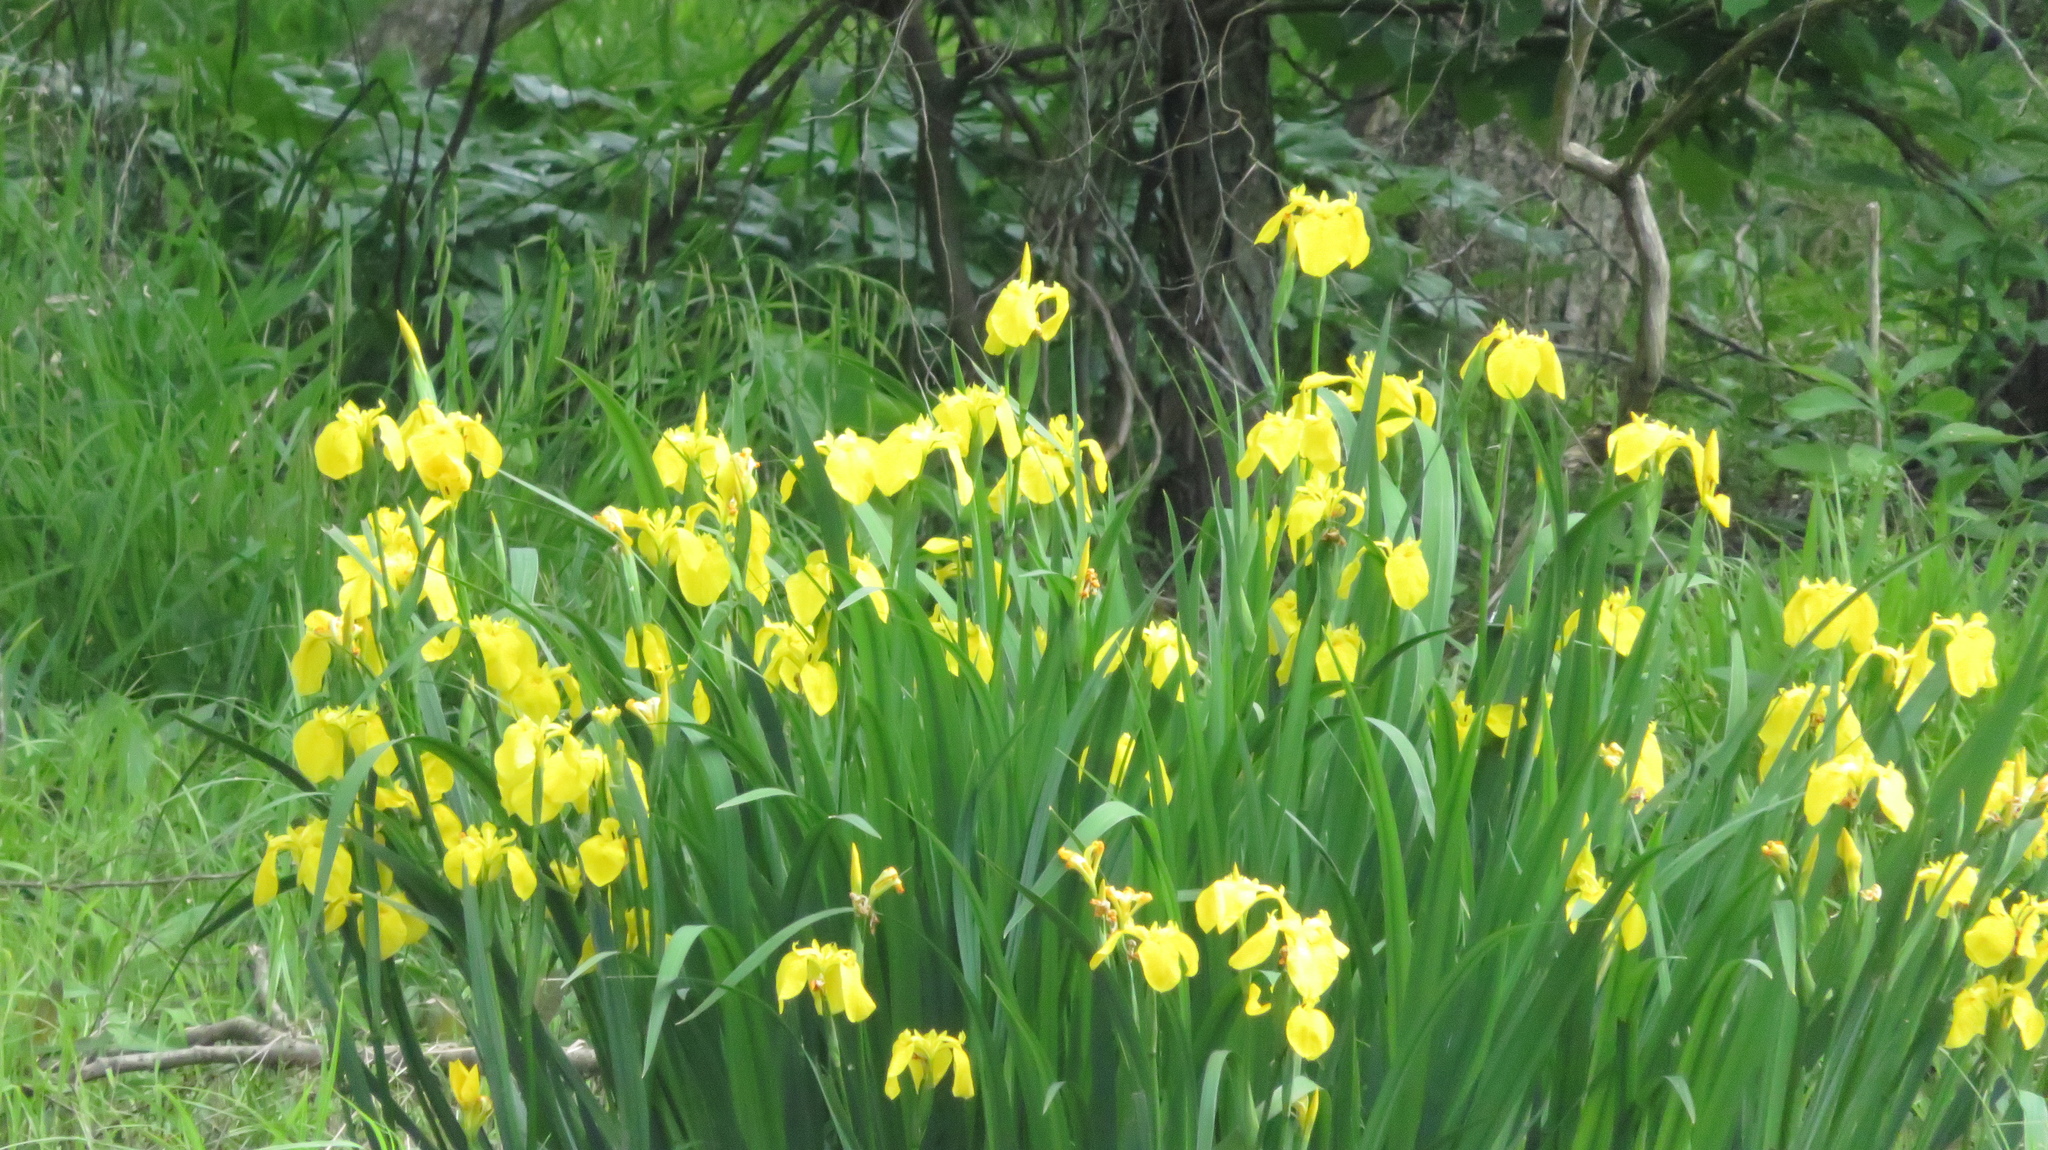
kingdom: Plantae
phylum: Tracheophyta
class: Liliopsida
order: Asparagales
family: Iridaceae
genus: Iris
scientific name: Iris pseudacorus
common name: Yellow flag
